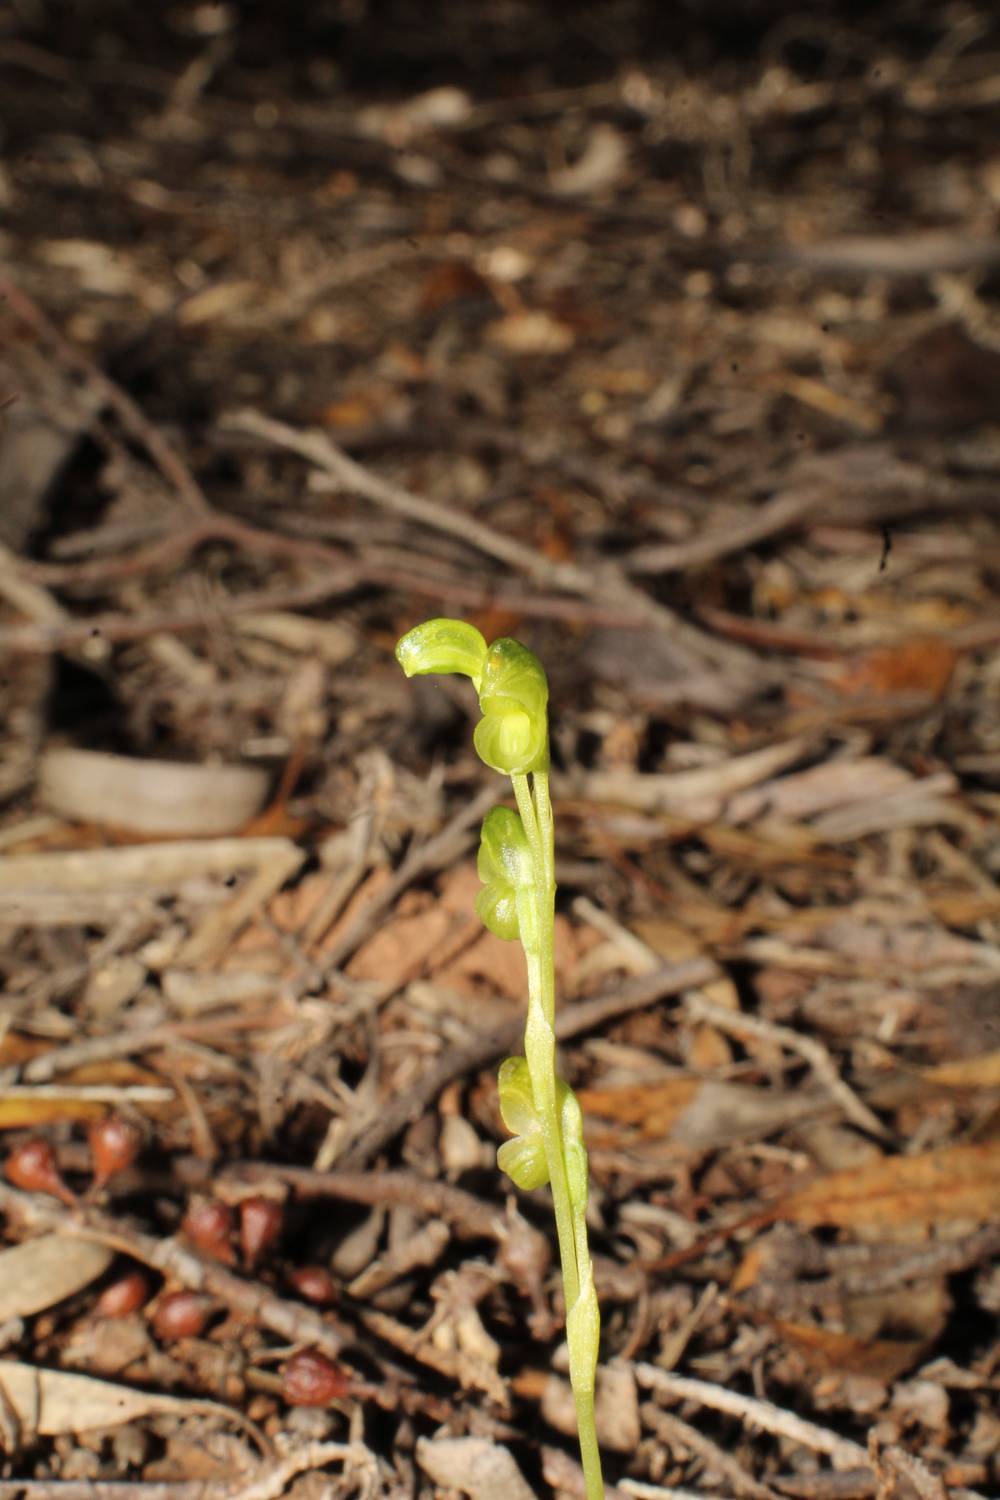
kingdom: Plantae
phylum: Tracheophyta
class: Liliopsida
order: Asparagales
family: Orchidaceae
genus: Pterostylis
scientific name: Pterostylis mutica
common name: Midget greenhood
